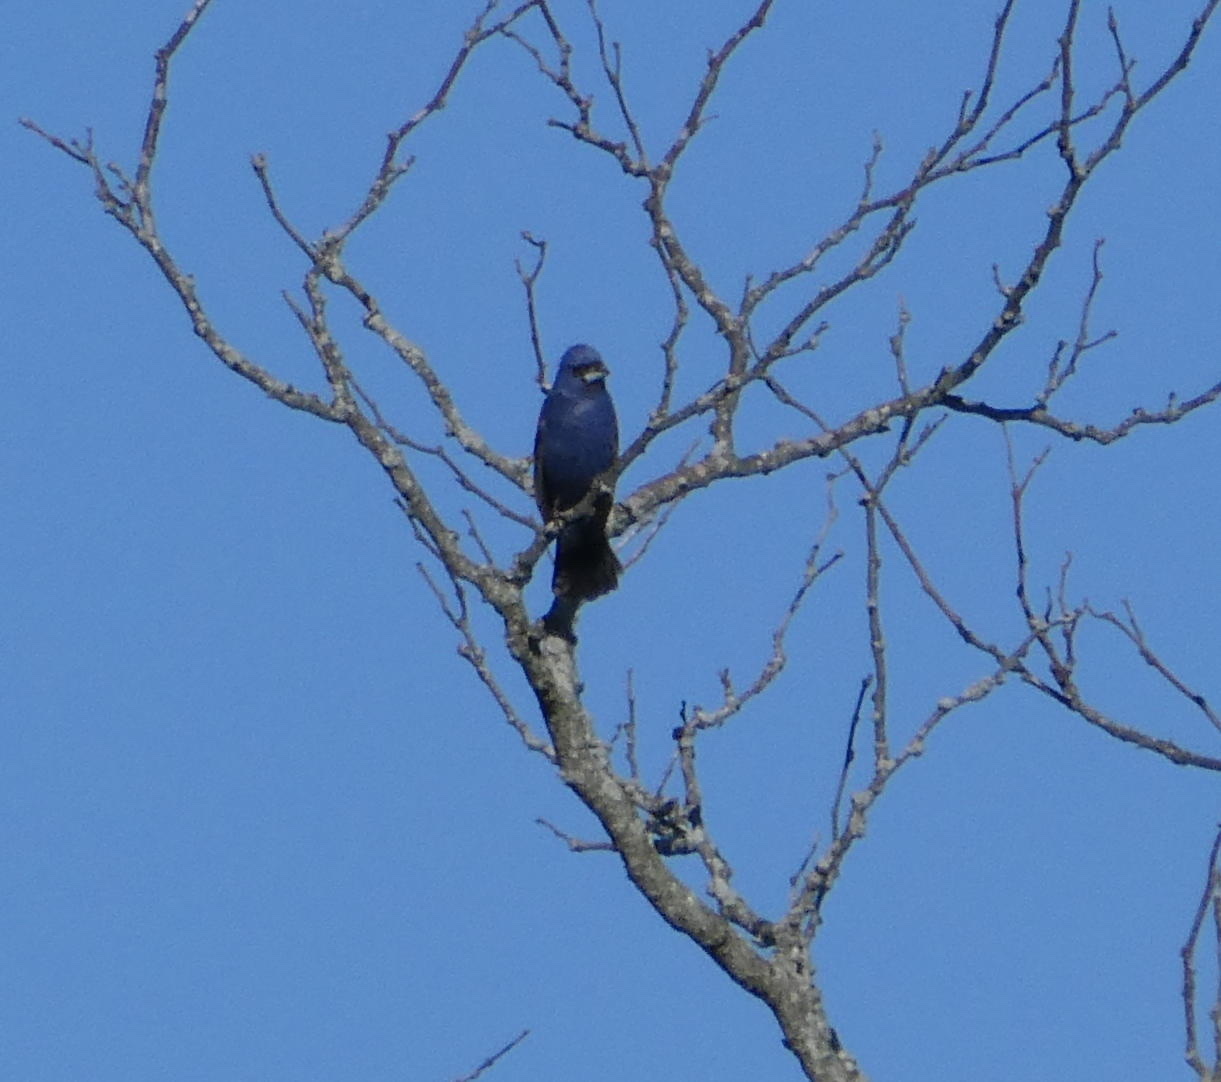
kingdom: Animalia
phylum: Chordata
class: Aves
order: Passeriformes
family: Cardinalidae
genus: Passerina
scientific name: Passerina caerulea
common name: Blue grosbeak
